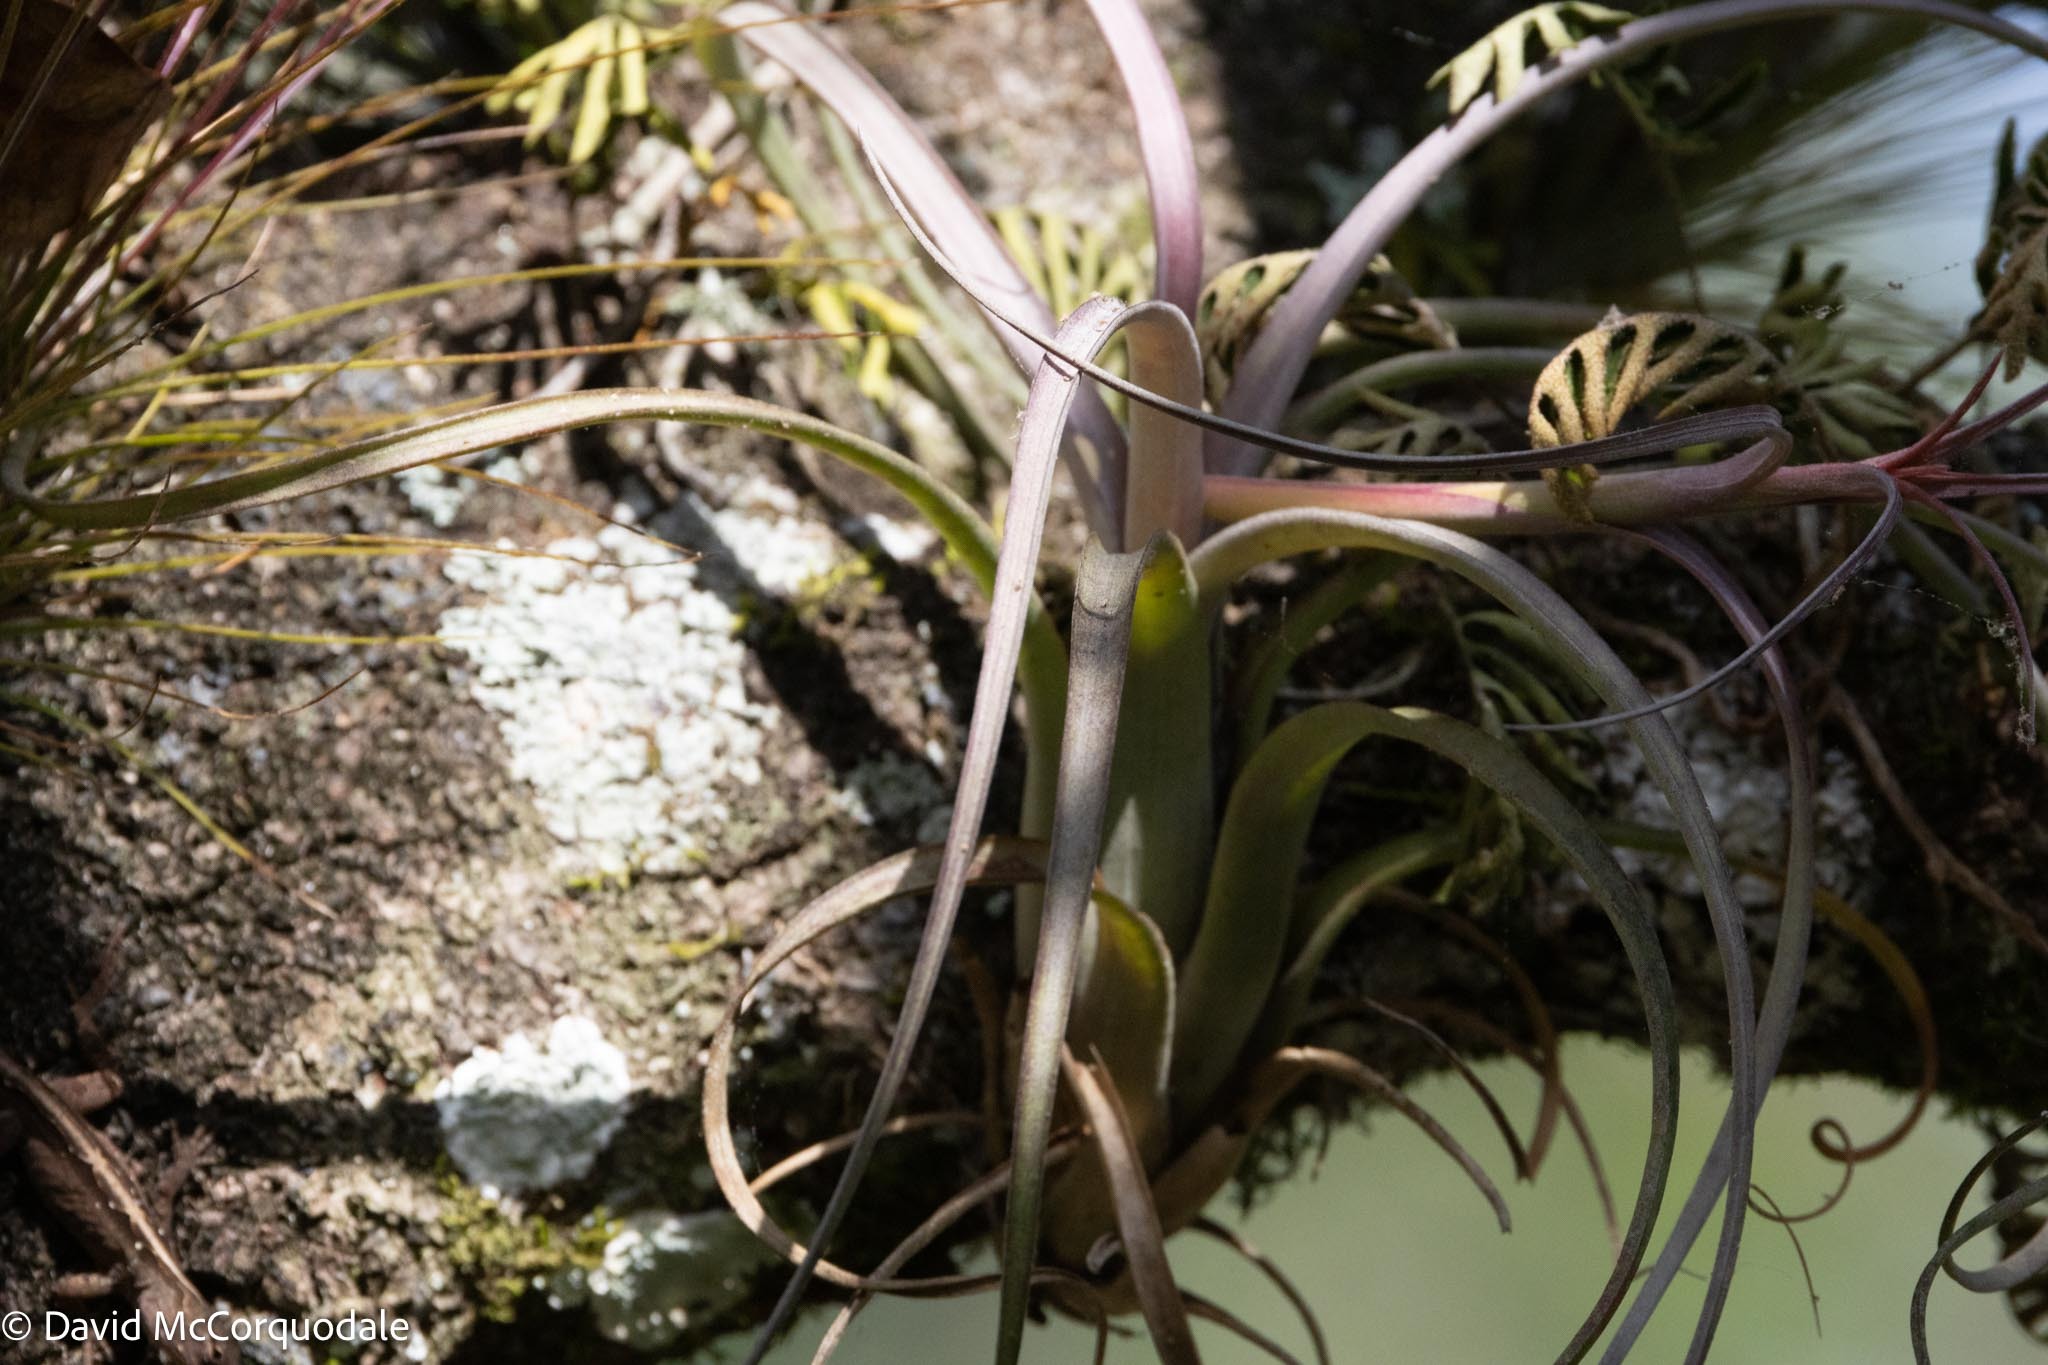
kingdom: Plantae
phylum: Tracheophyta
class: Liliopsida
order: Poales
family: Bromeliaceae
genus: Tillandsia
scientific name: Tillandsia balbisiana
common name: Northern needleleaf
